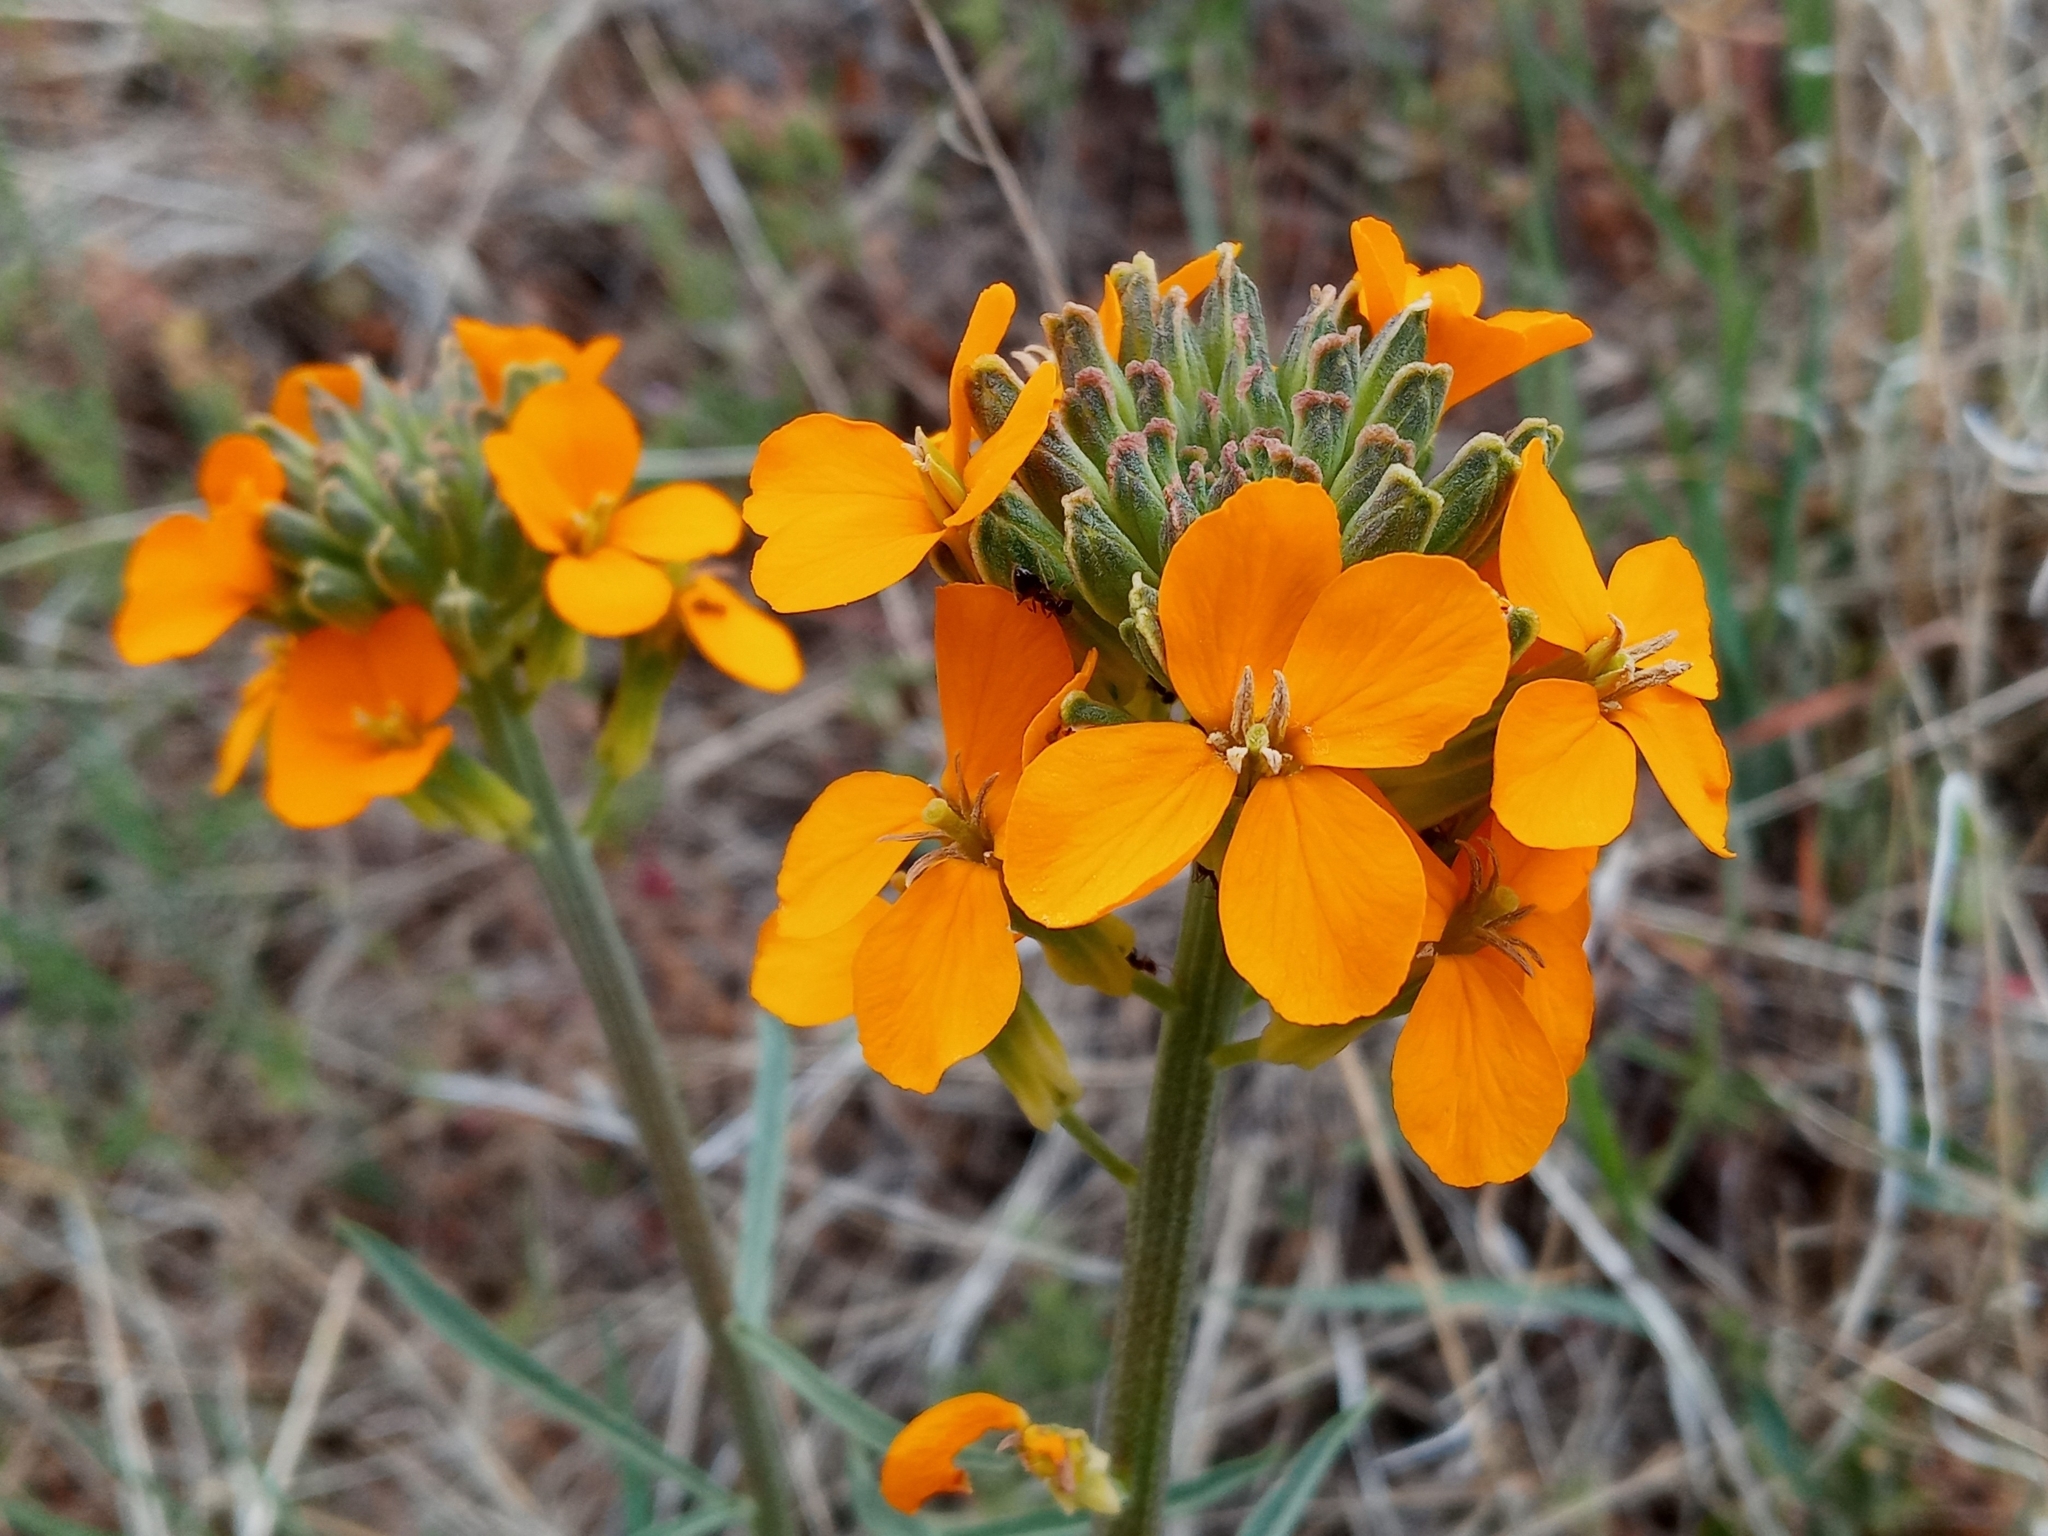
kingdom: Plantae
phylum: Tracheophyta
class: Magnoliopsida
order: Brassicales
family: Brassicaceae
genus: Erysimum
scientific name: Erysimum capitatum
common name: Western wallflower
